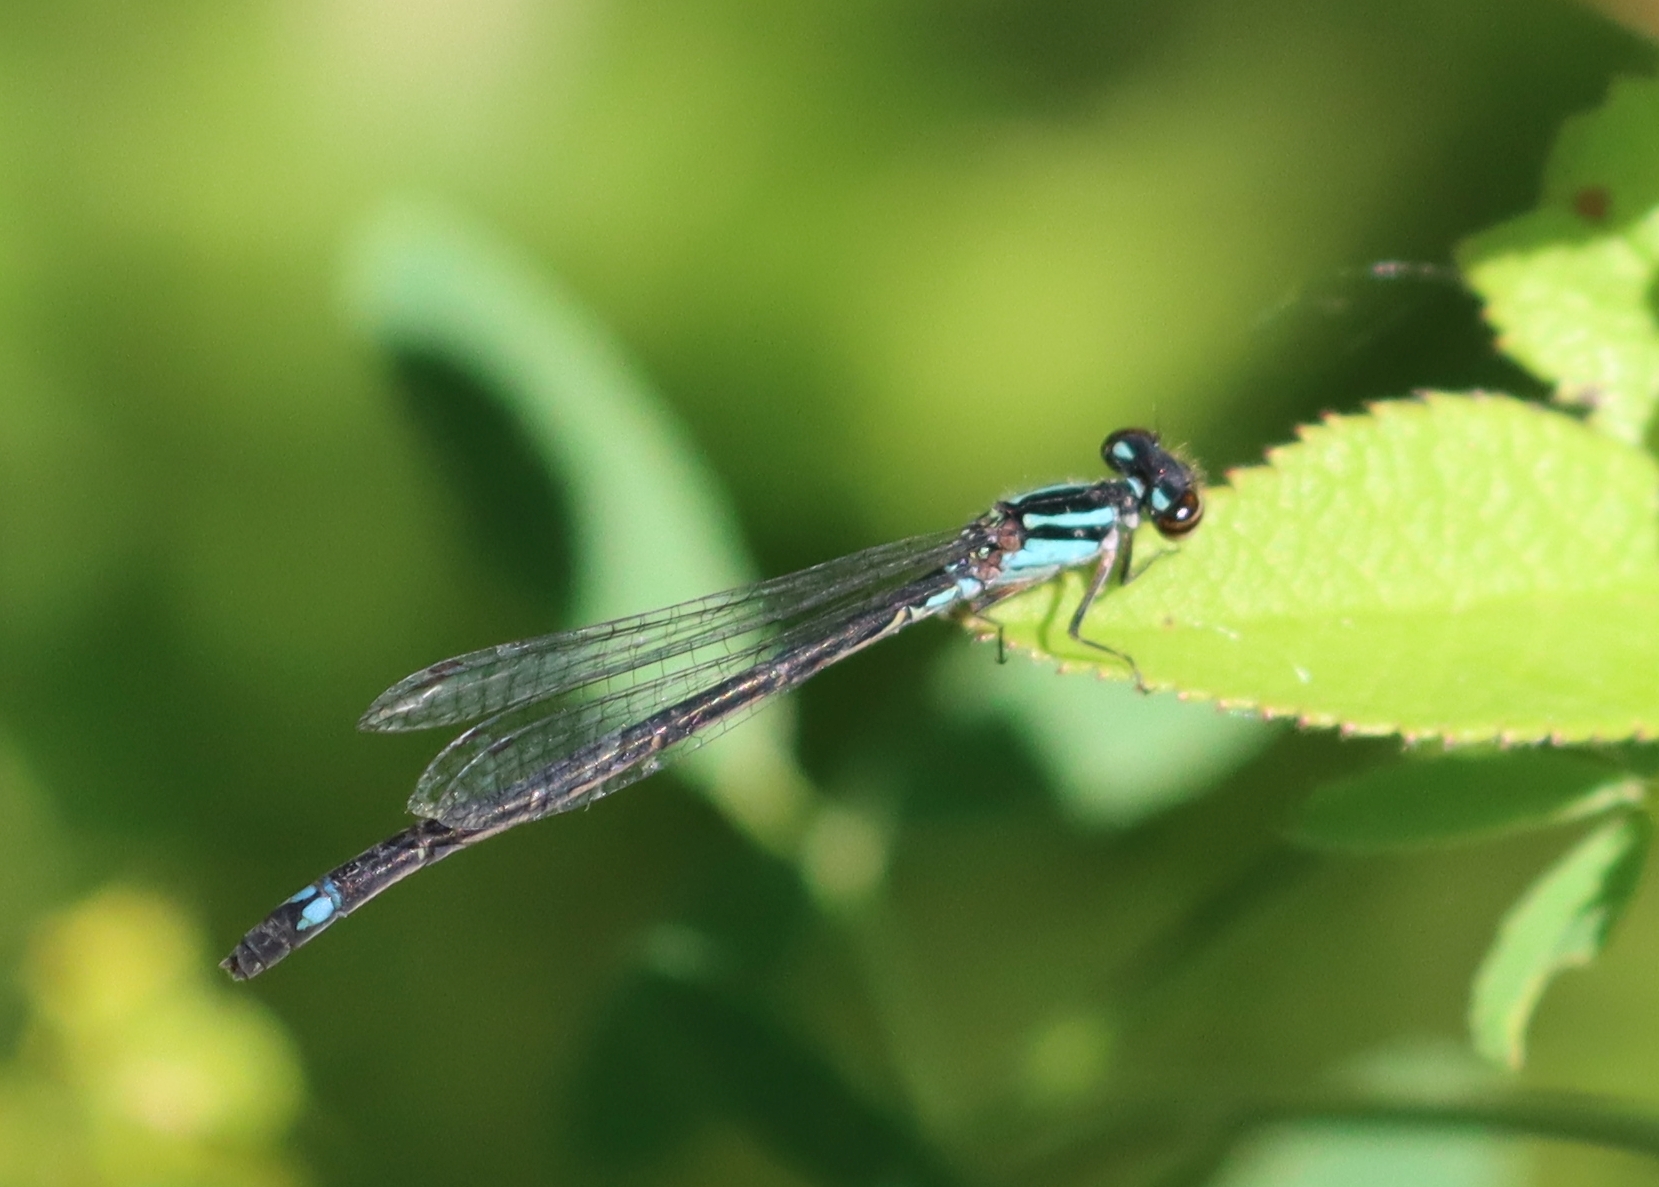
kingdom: Animalia
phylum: Arthropoda
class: Insecta
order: Odonata
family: Coenagrionidae
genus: Enallagma
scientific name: Enallagma geminatum
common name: Skimming bluet
